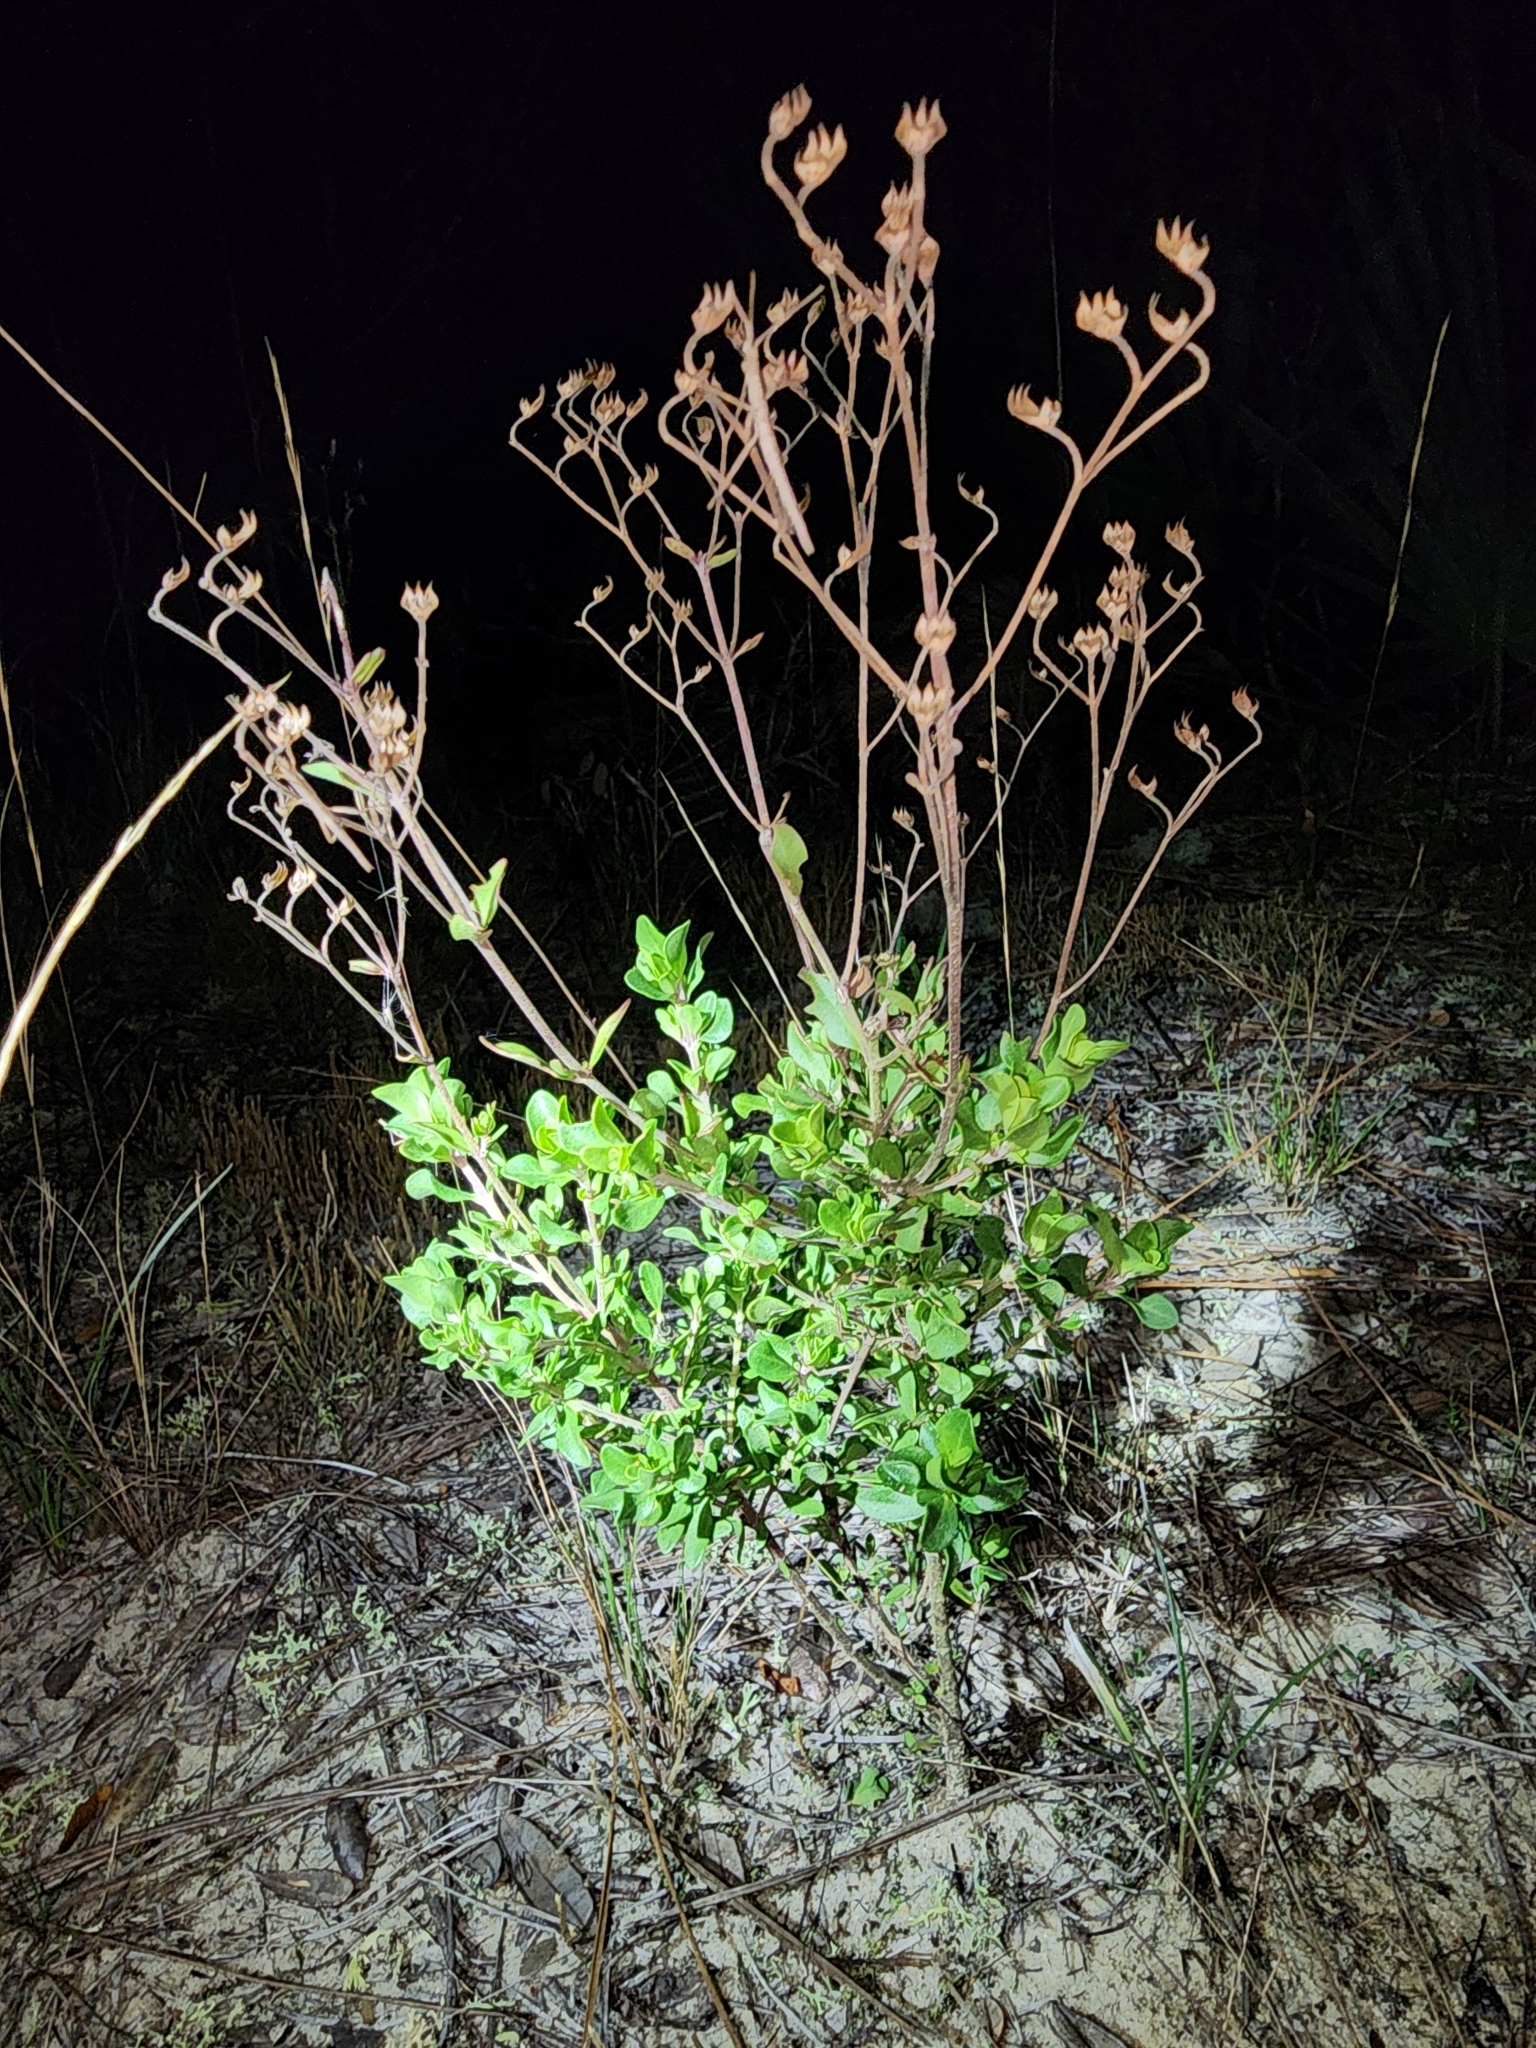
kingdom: Plantae
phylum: Tracheophyta
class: Magnoliopsida
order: Lamiales
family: Lamiaceae
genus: Trichostema
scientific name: Trichostema bridgesii-orzellii
